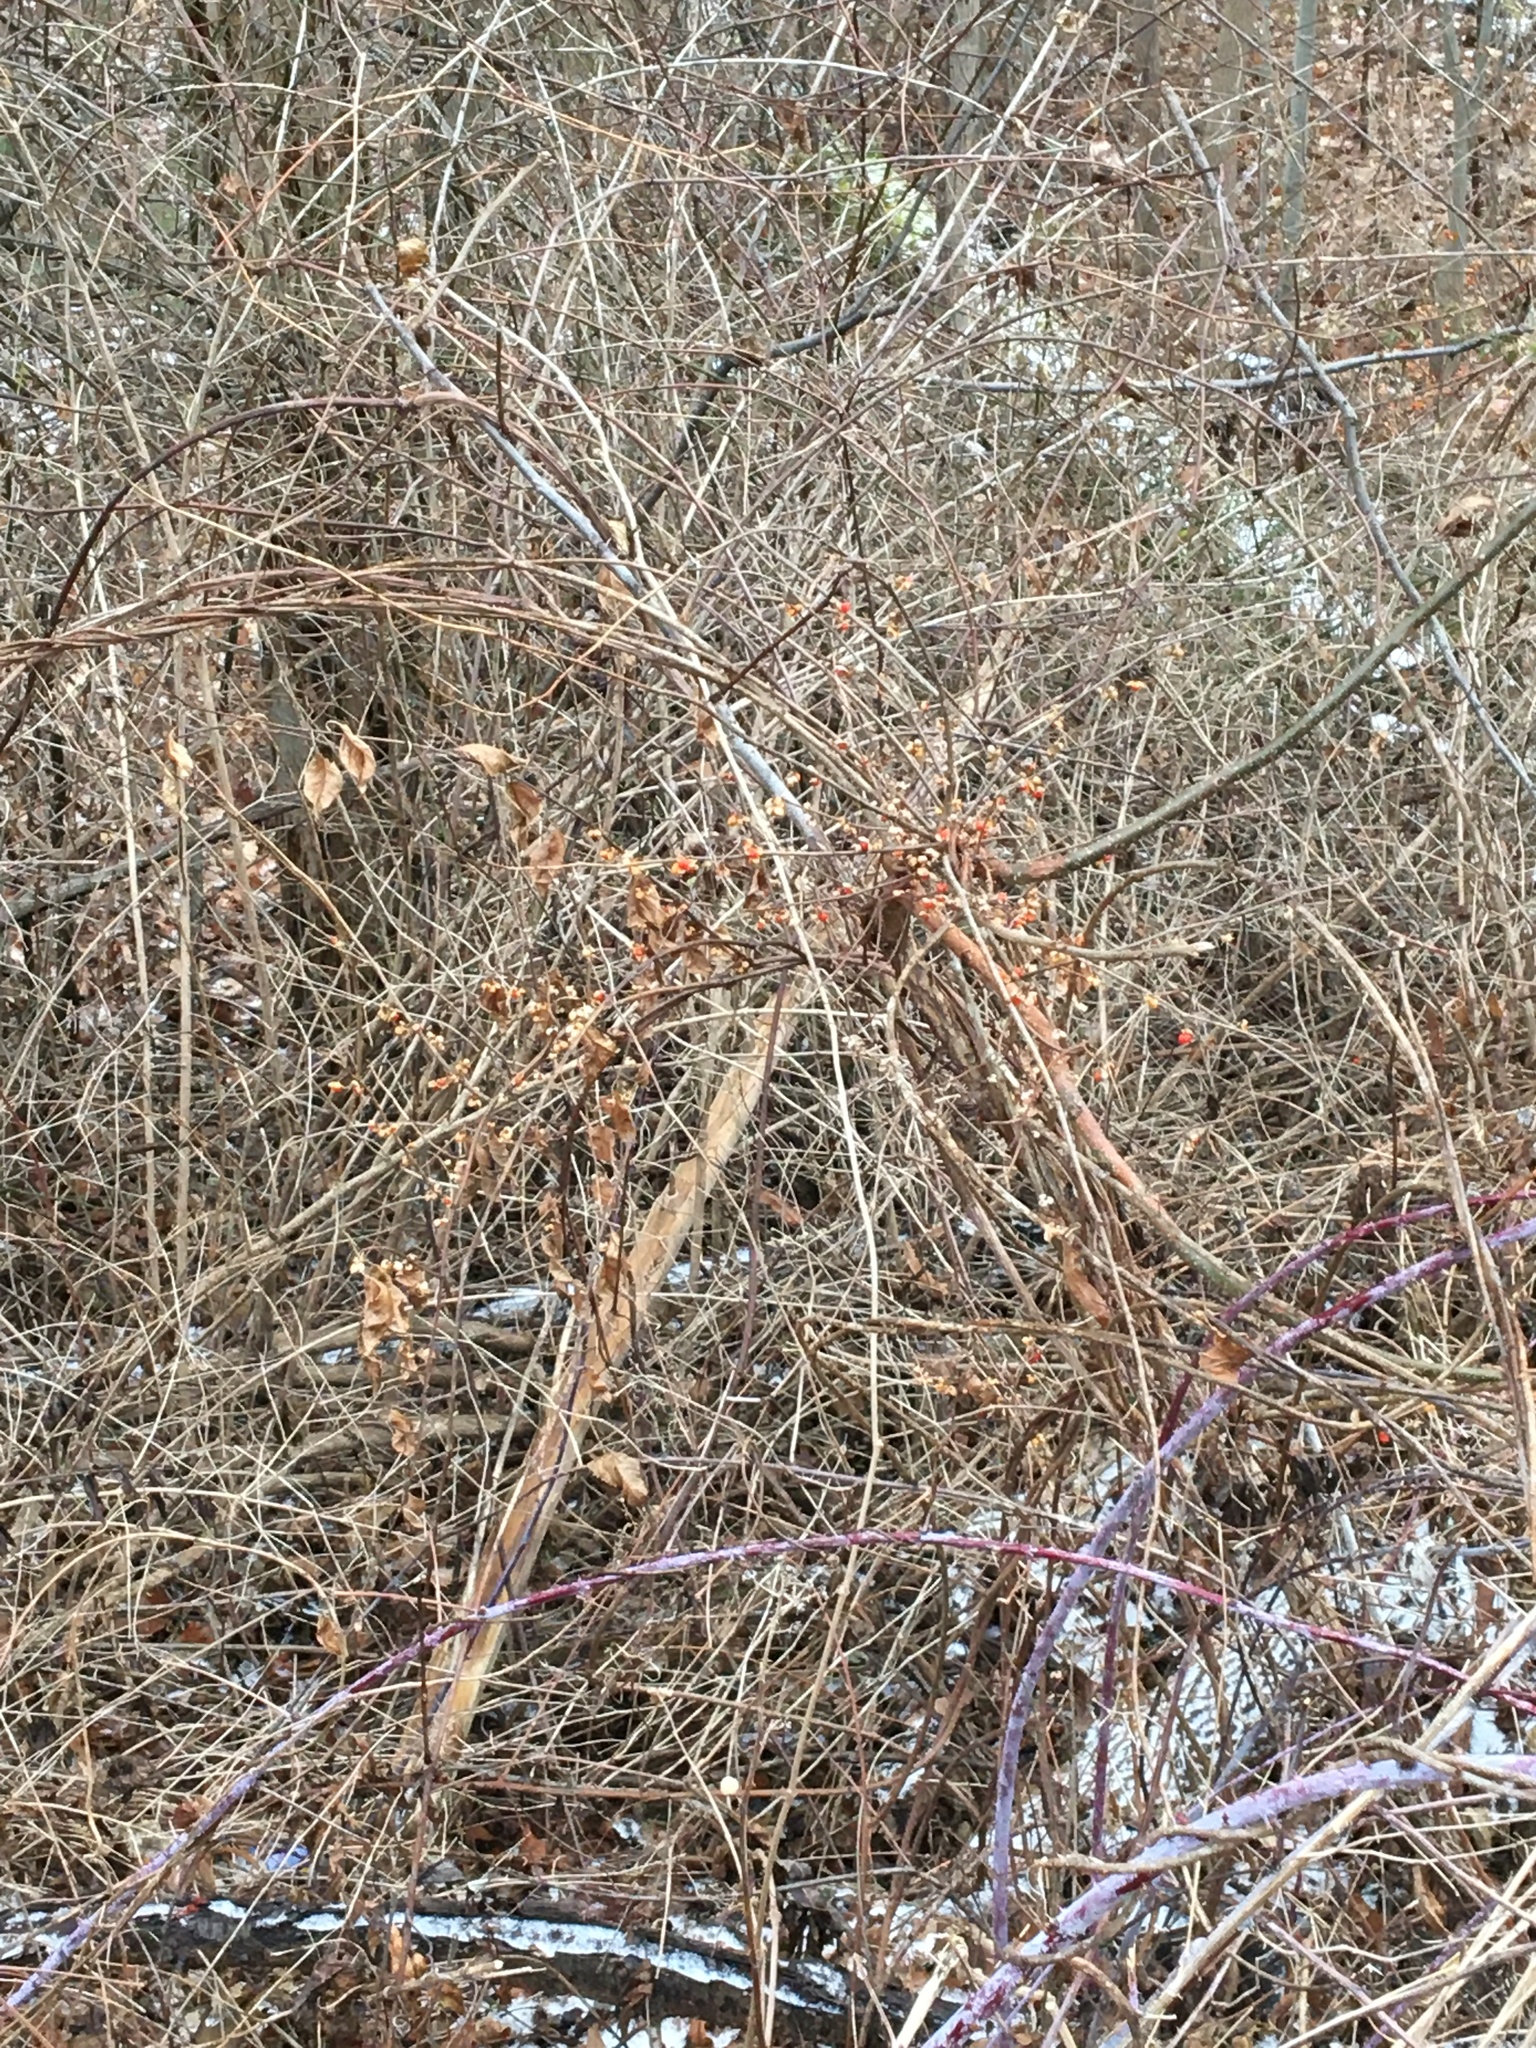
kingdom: Plantae
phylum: Tracheophyta
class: Magnoliopsida
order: Celastrales
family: Celastraceae
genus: Celastrus
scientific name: Celastrus orbiculatus
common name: Oriental bittersweet
